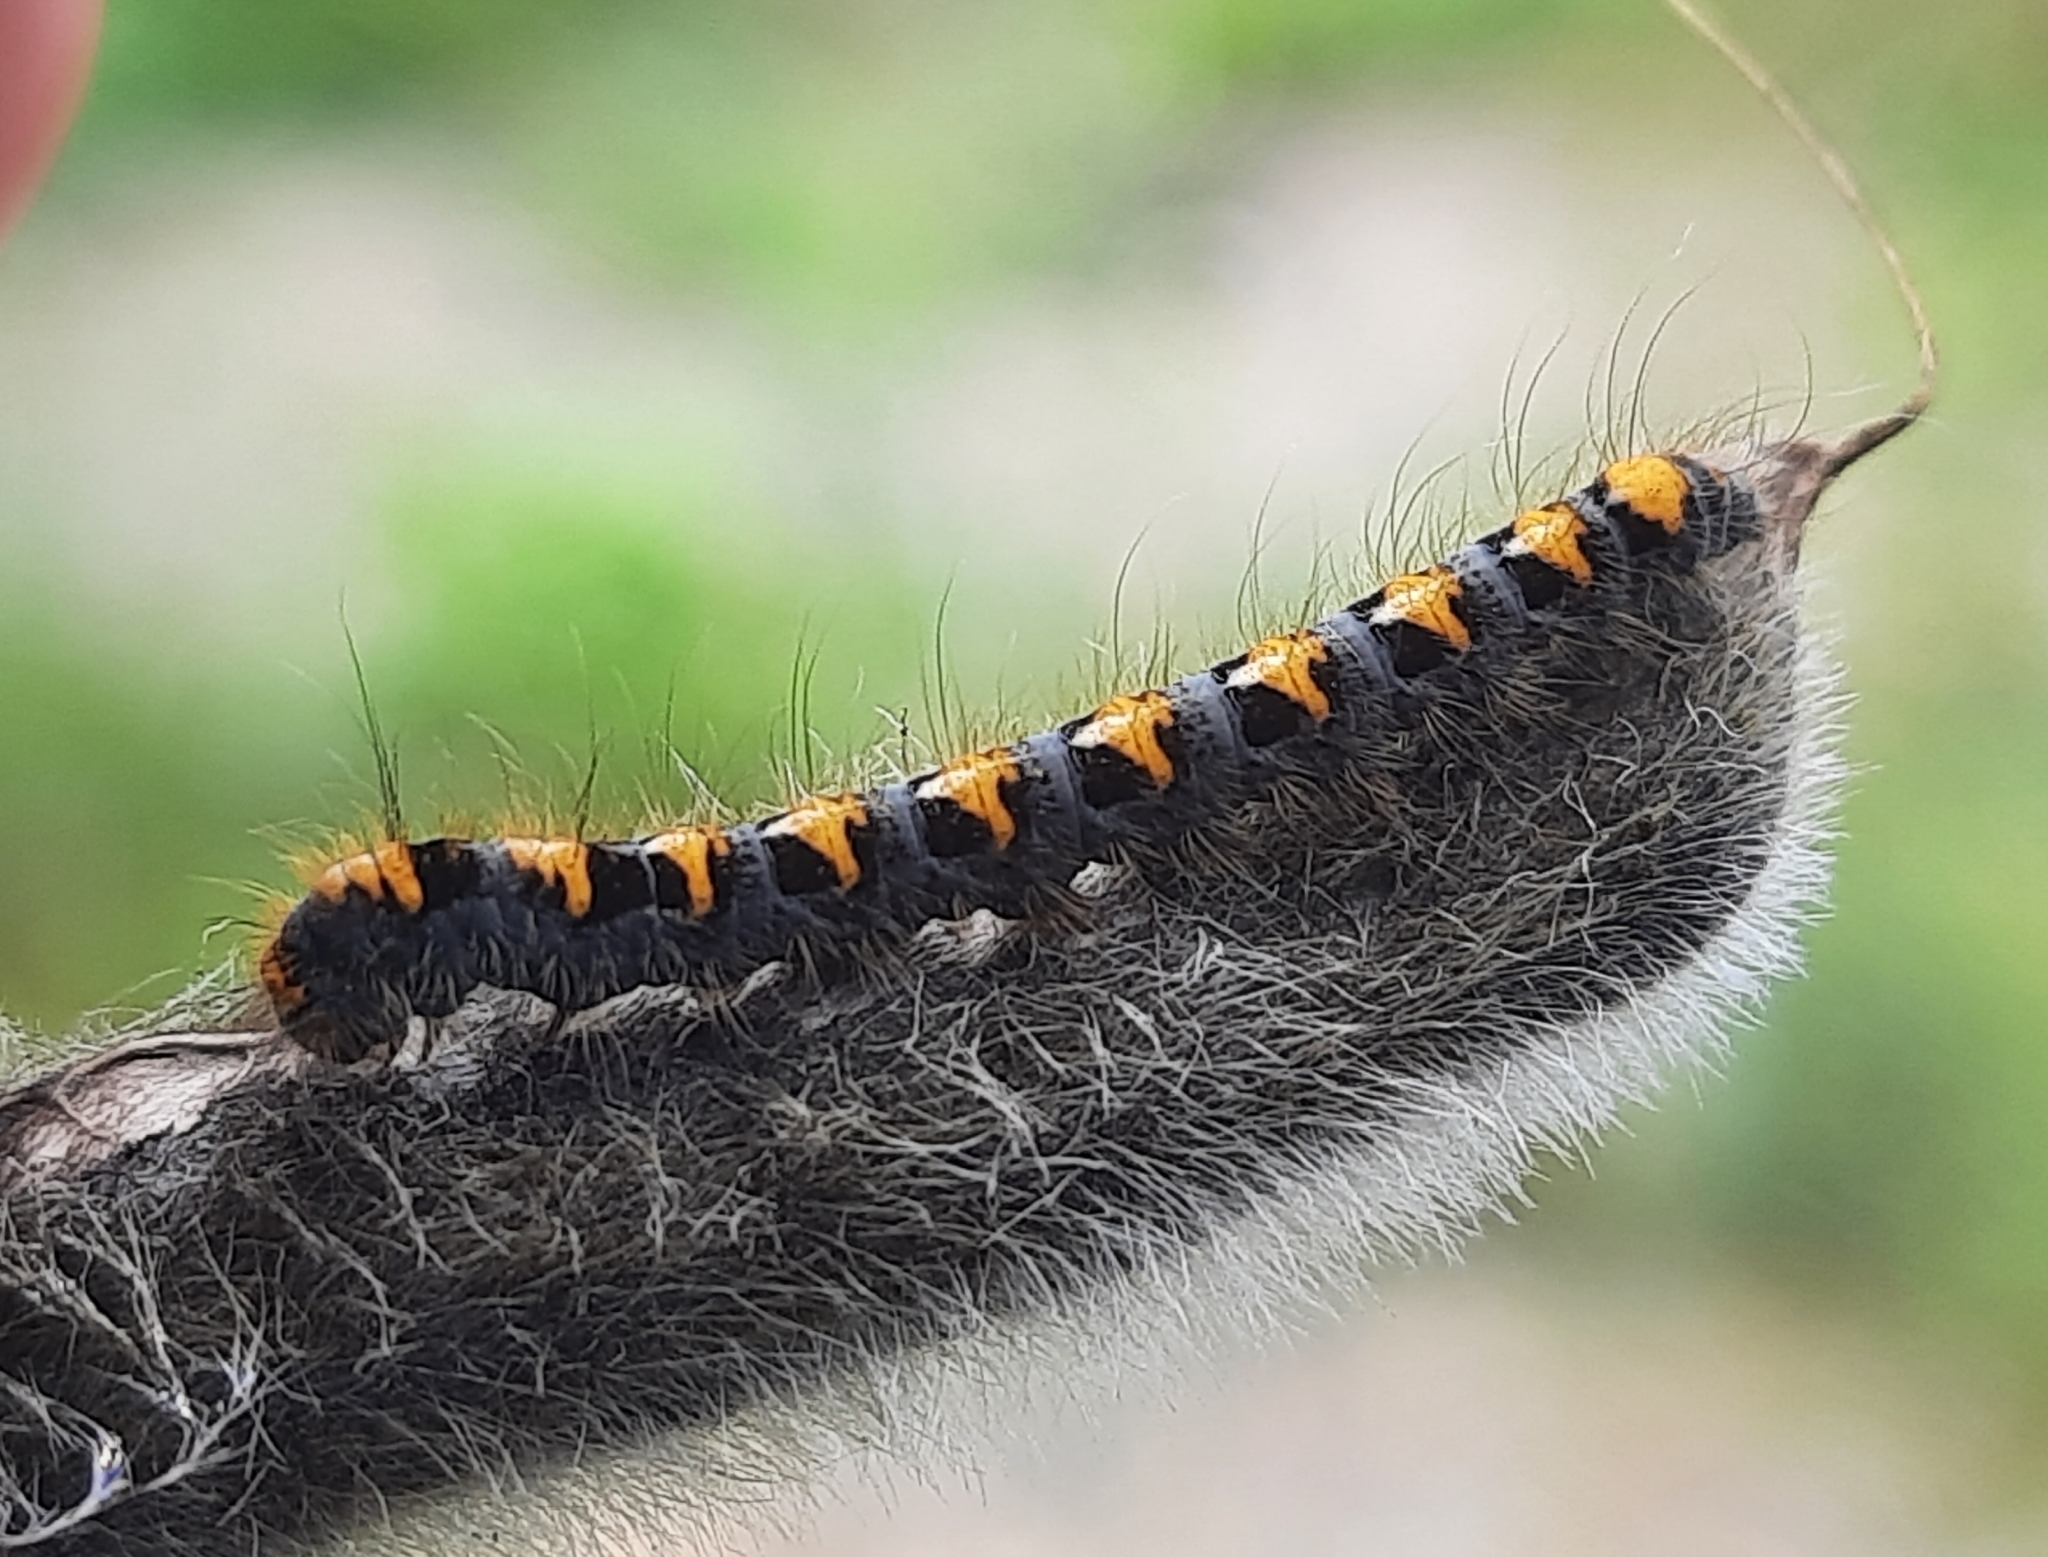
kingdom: Animalia
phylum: Arthropoda
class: Insecta
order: Lepidoptera
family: Lasiocampidae
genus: Lasiocampa
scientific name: Lasiocampa quercus
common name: Oak eggar
